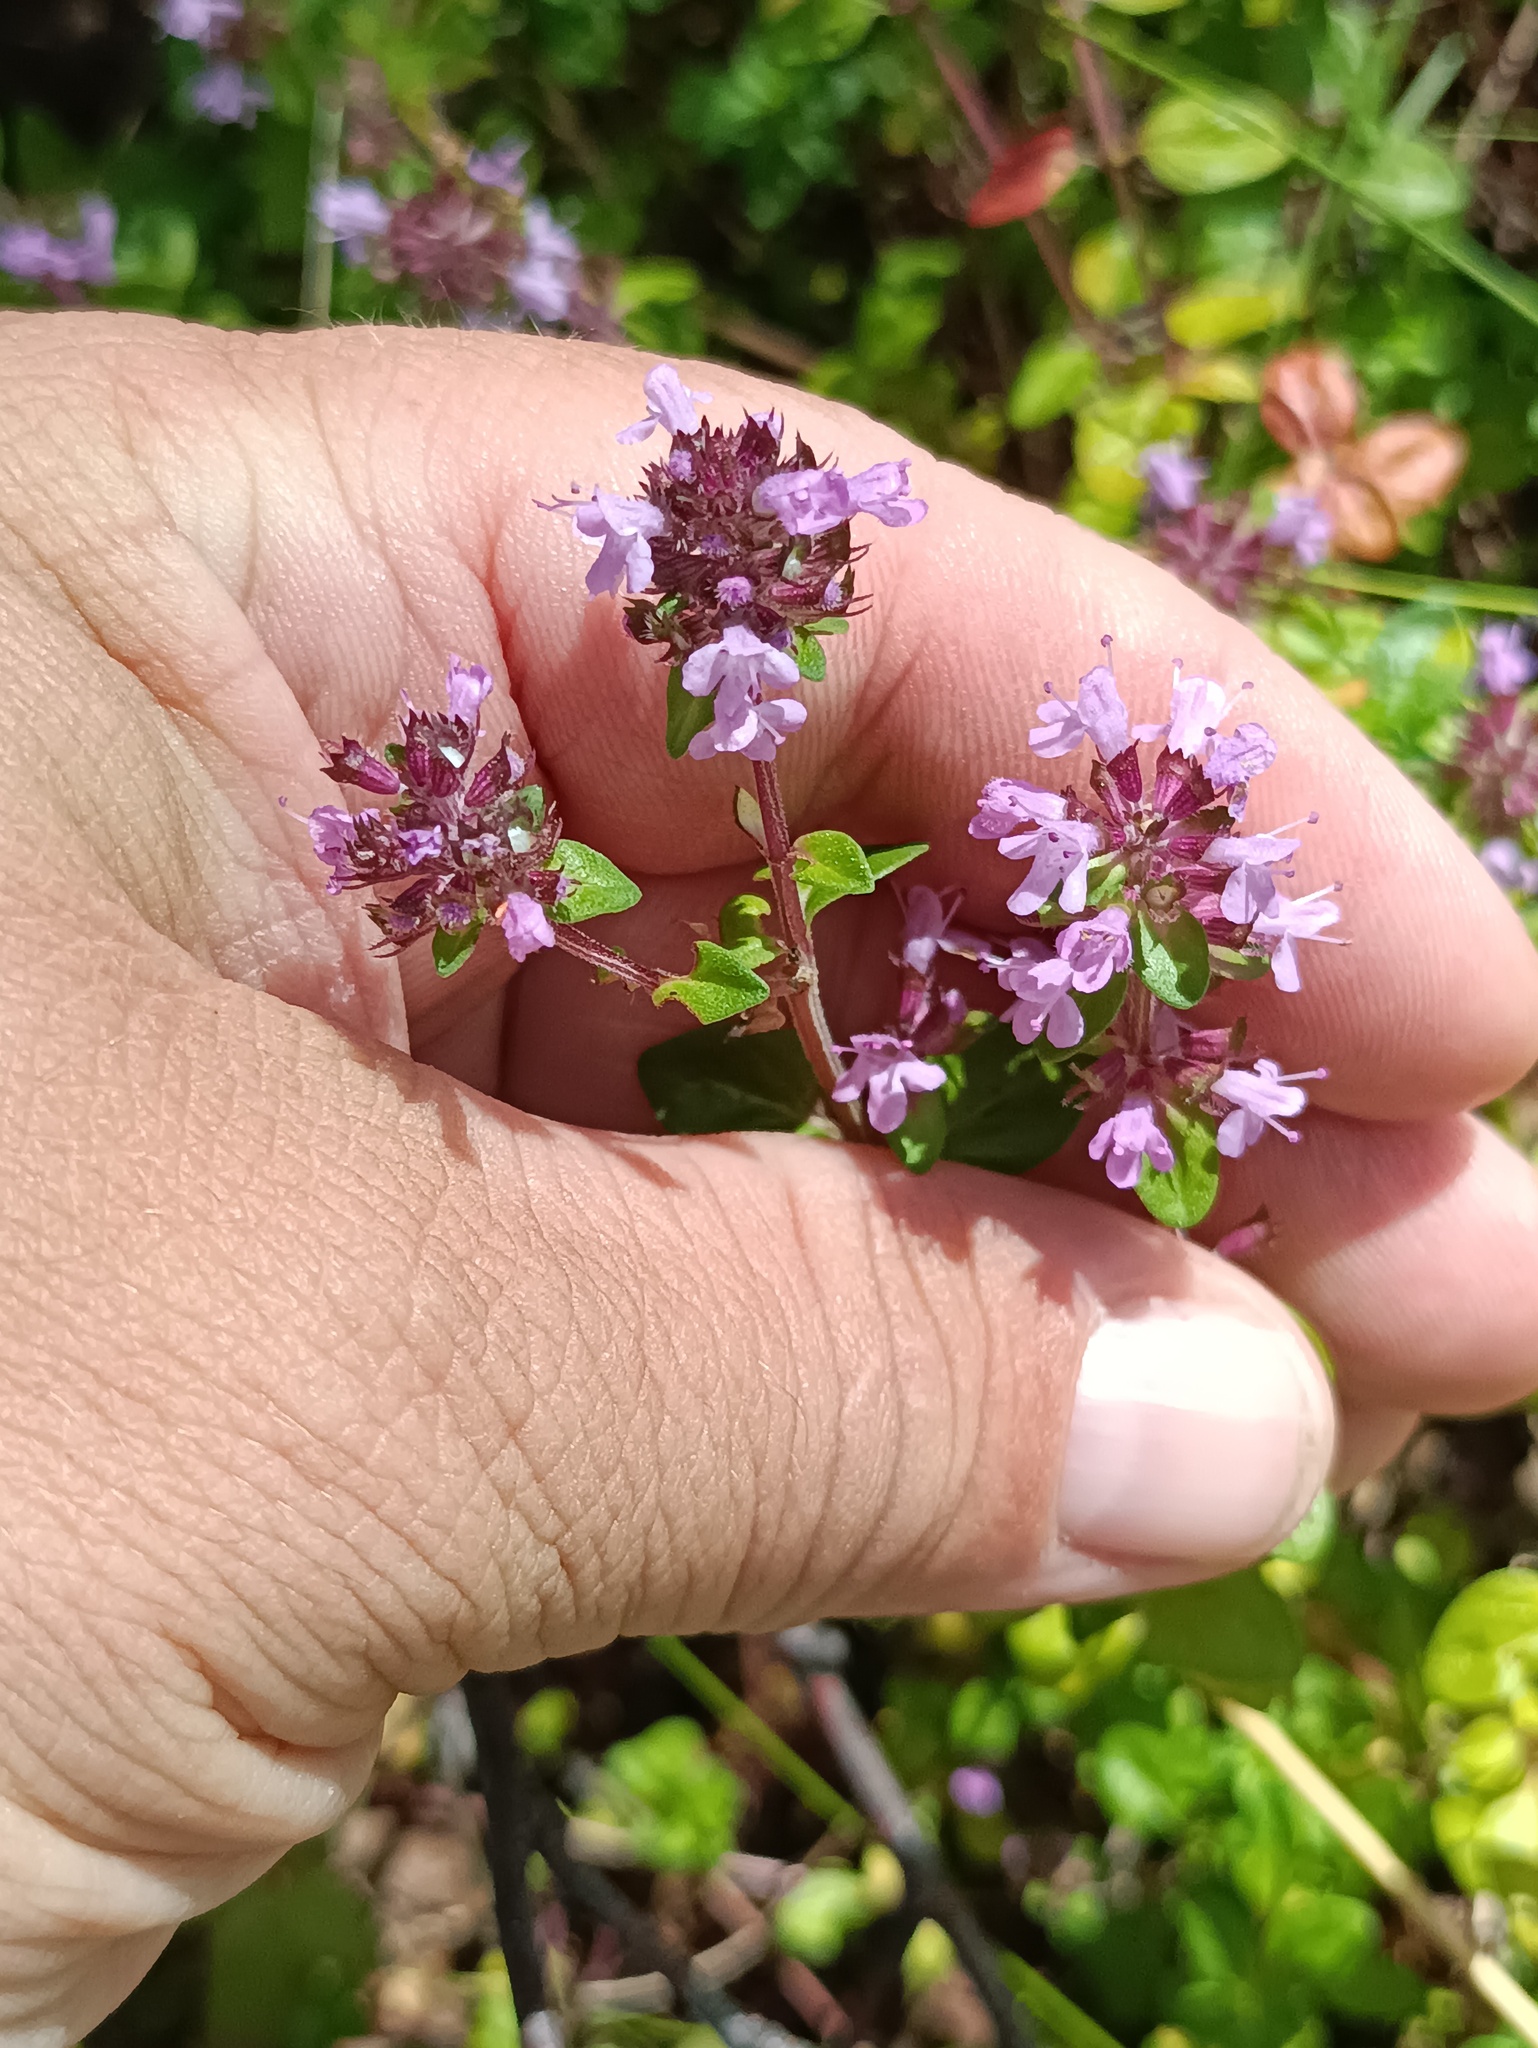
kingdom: Plantae
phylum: Tracheophyta
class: Magnoliopsida
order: Lamiales
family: Lamiaceae
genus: Thymus
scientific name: Thymus pulegioides
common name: Large thyme
